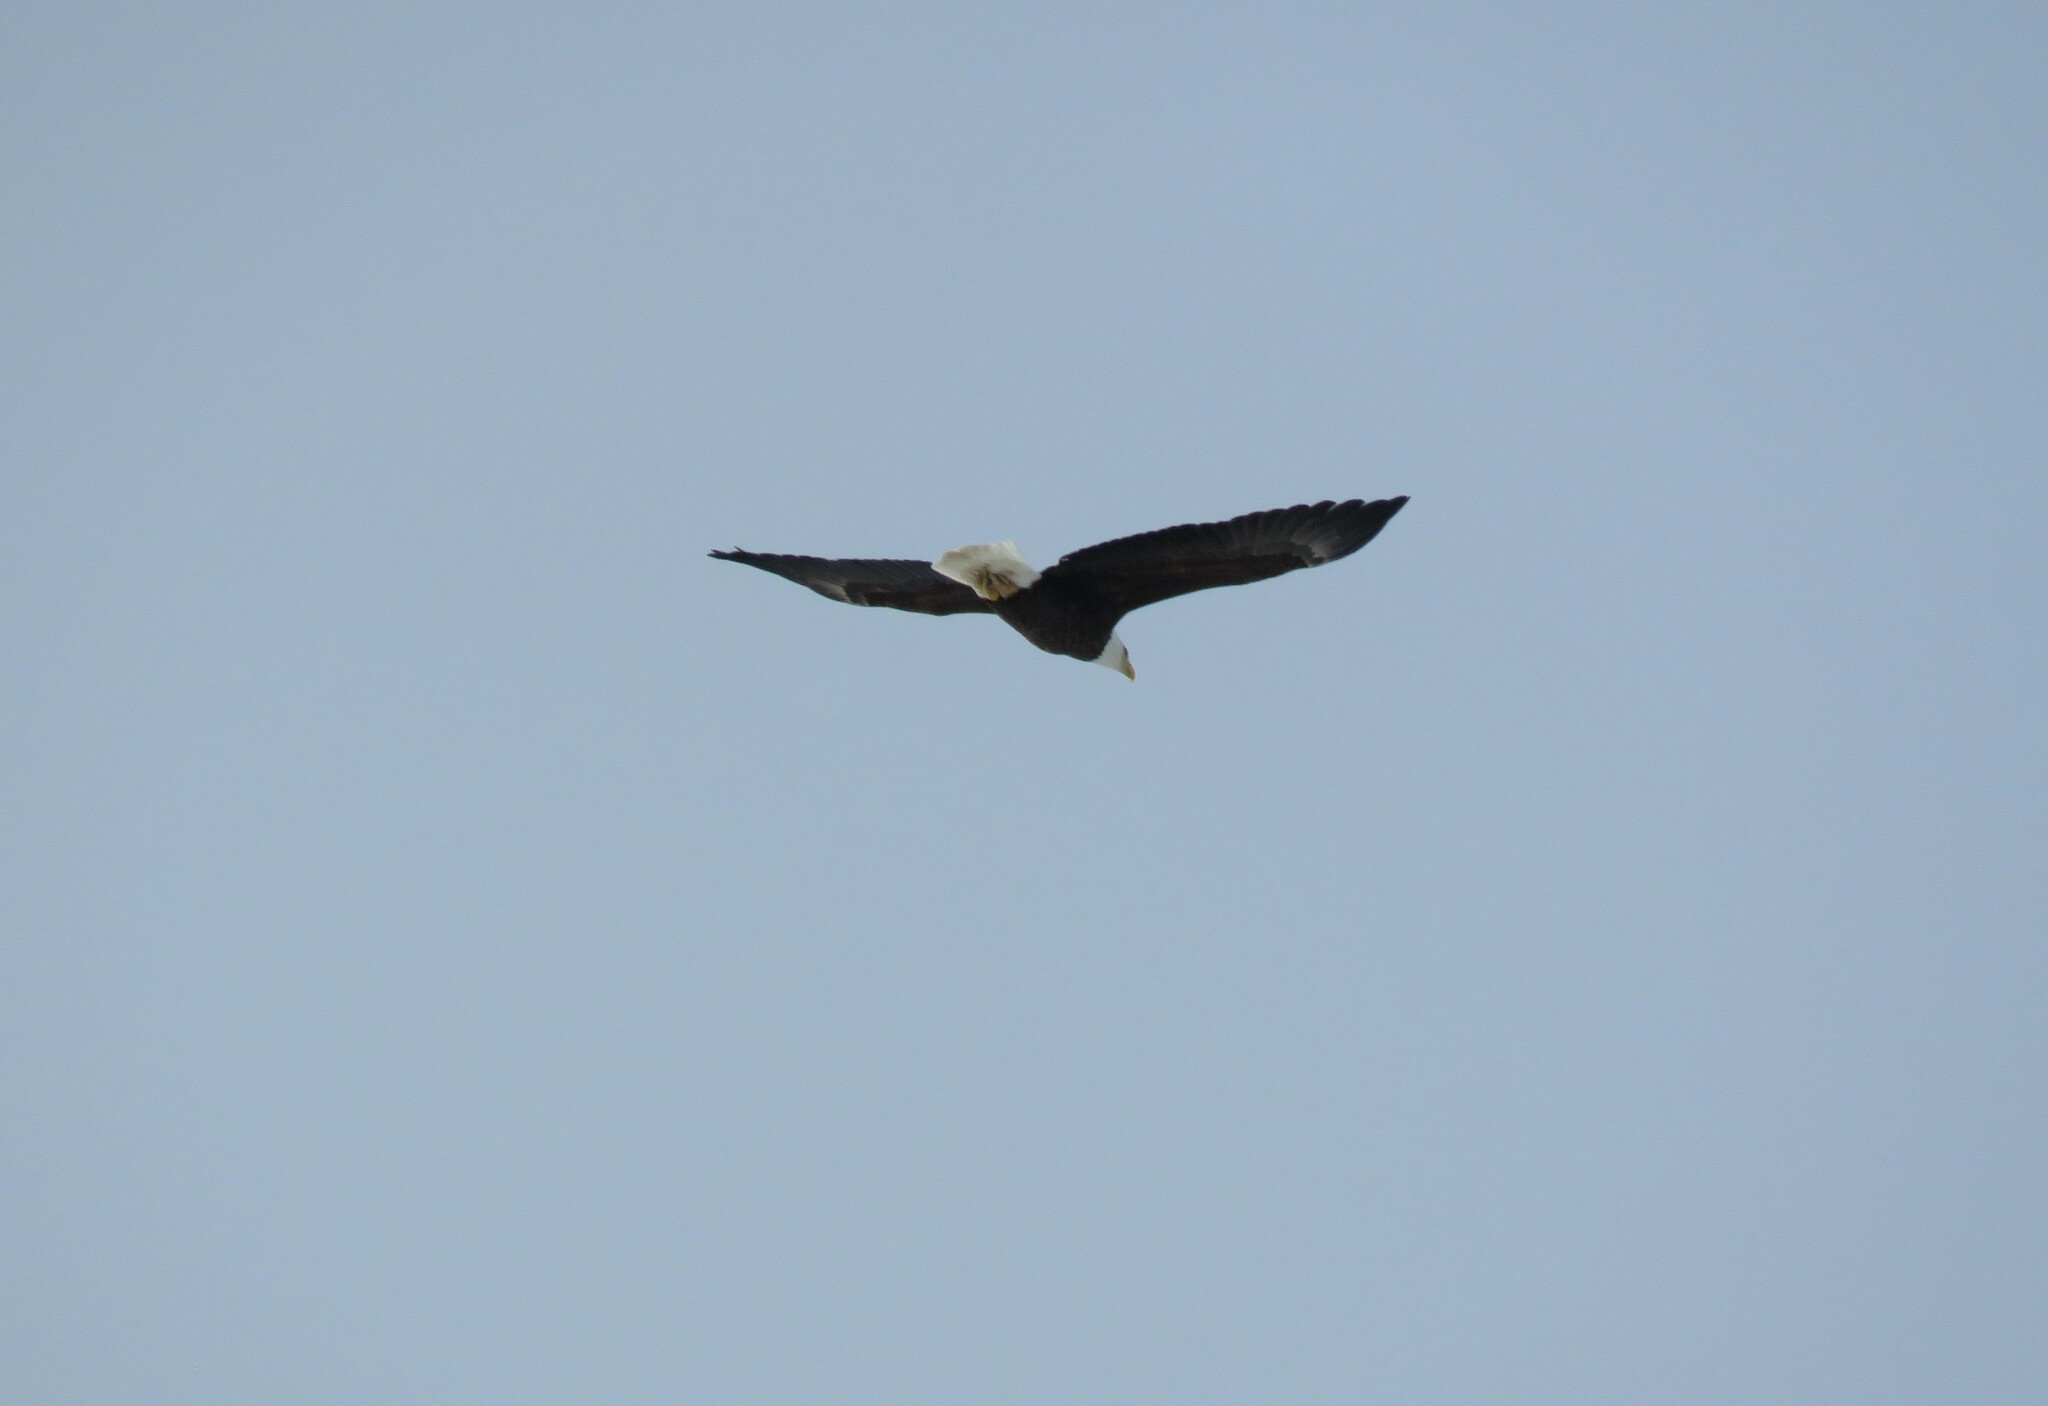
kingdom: Animalia
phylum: Chordata
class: Aves
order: Accipitriformes
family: Accipitridae
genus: Haliaeetus
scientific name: Haliaeetus leucocephalus
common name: Bald eagle
